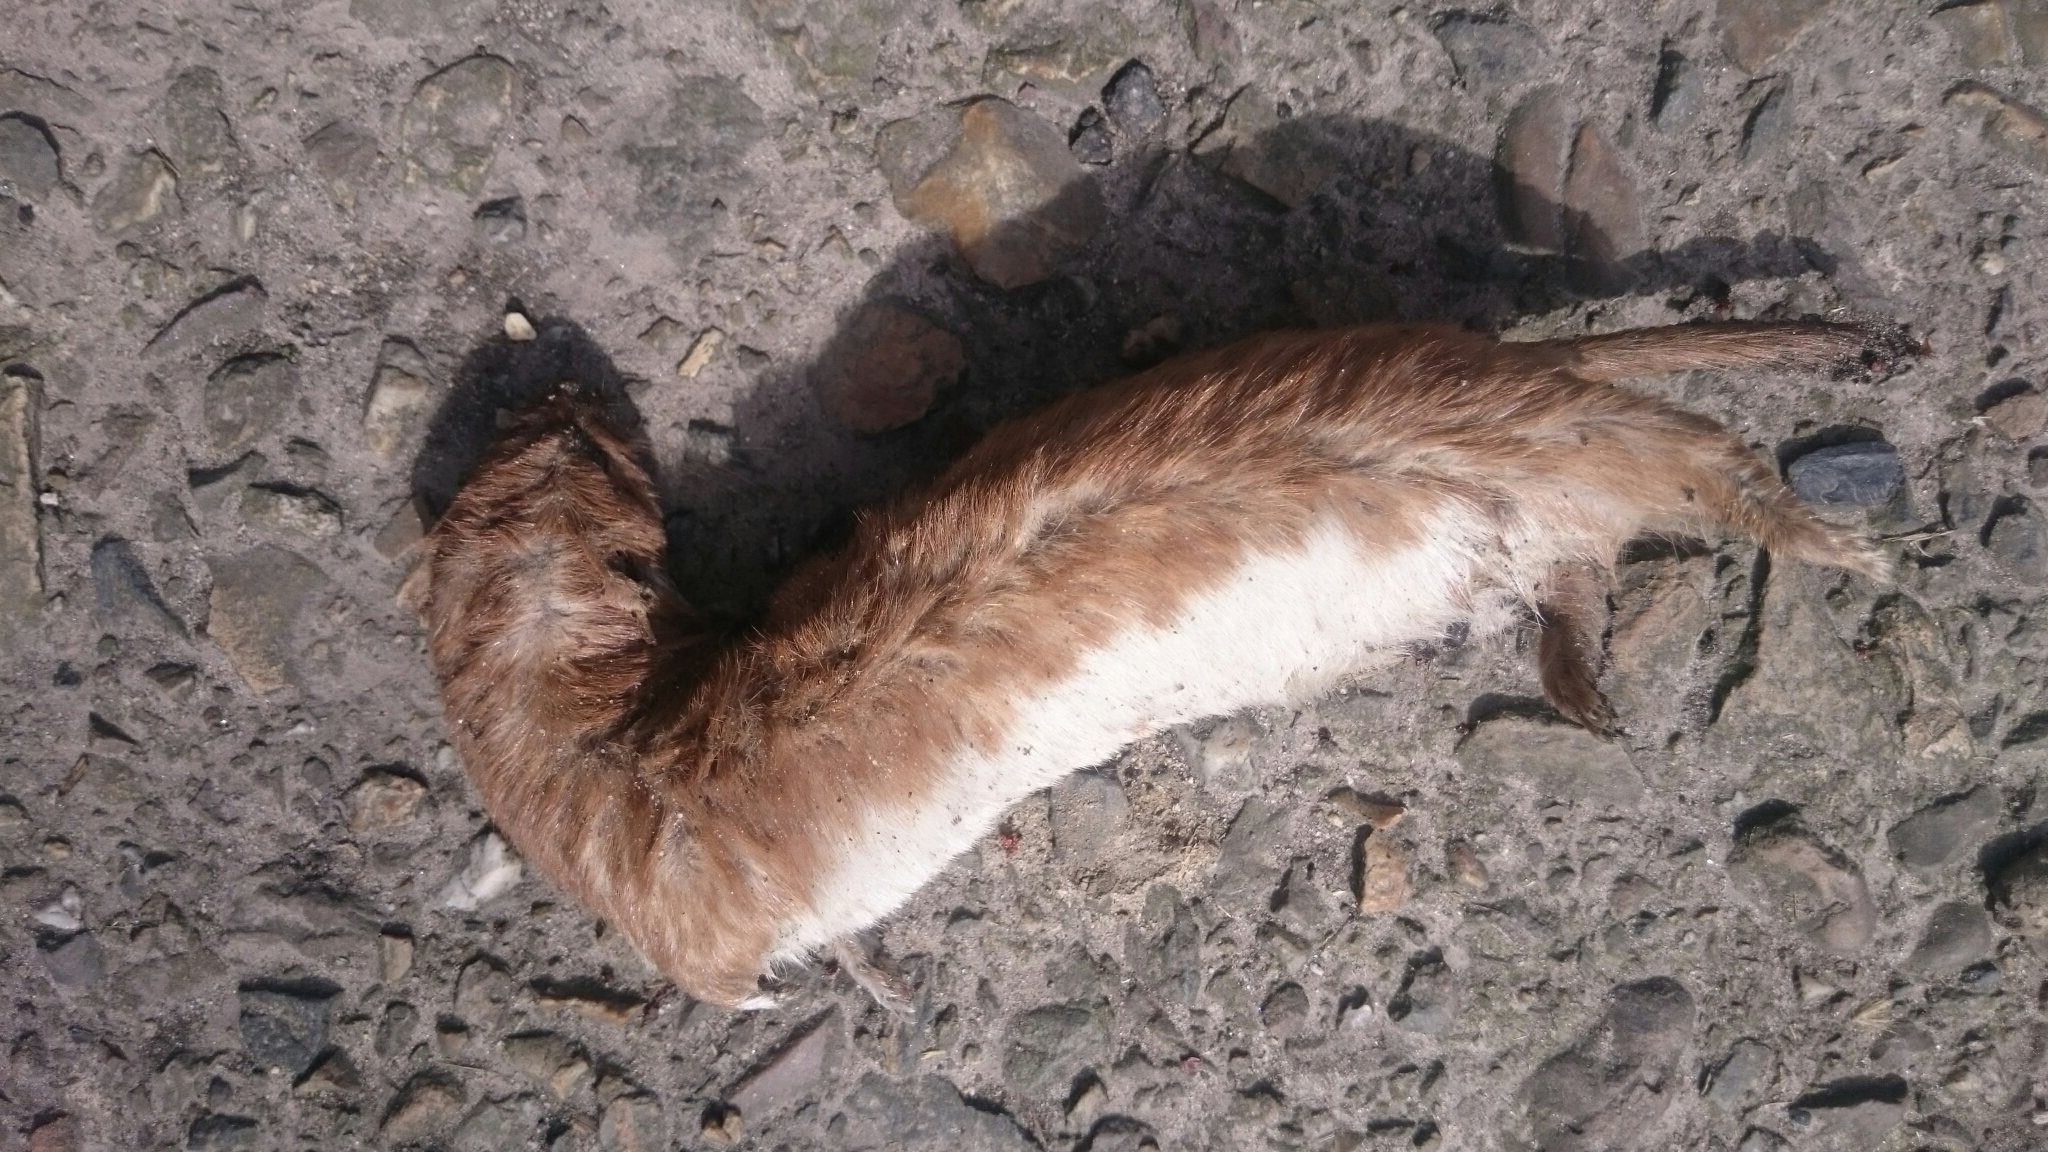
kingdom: Animalia
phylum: Chordata
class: Mammalia
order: Carnivora
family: Mustelidae
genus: Mustela
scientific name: Mustela nivalis
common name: Least weasel
